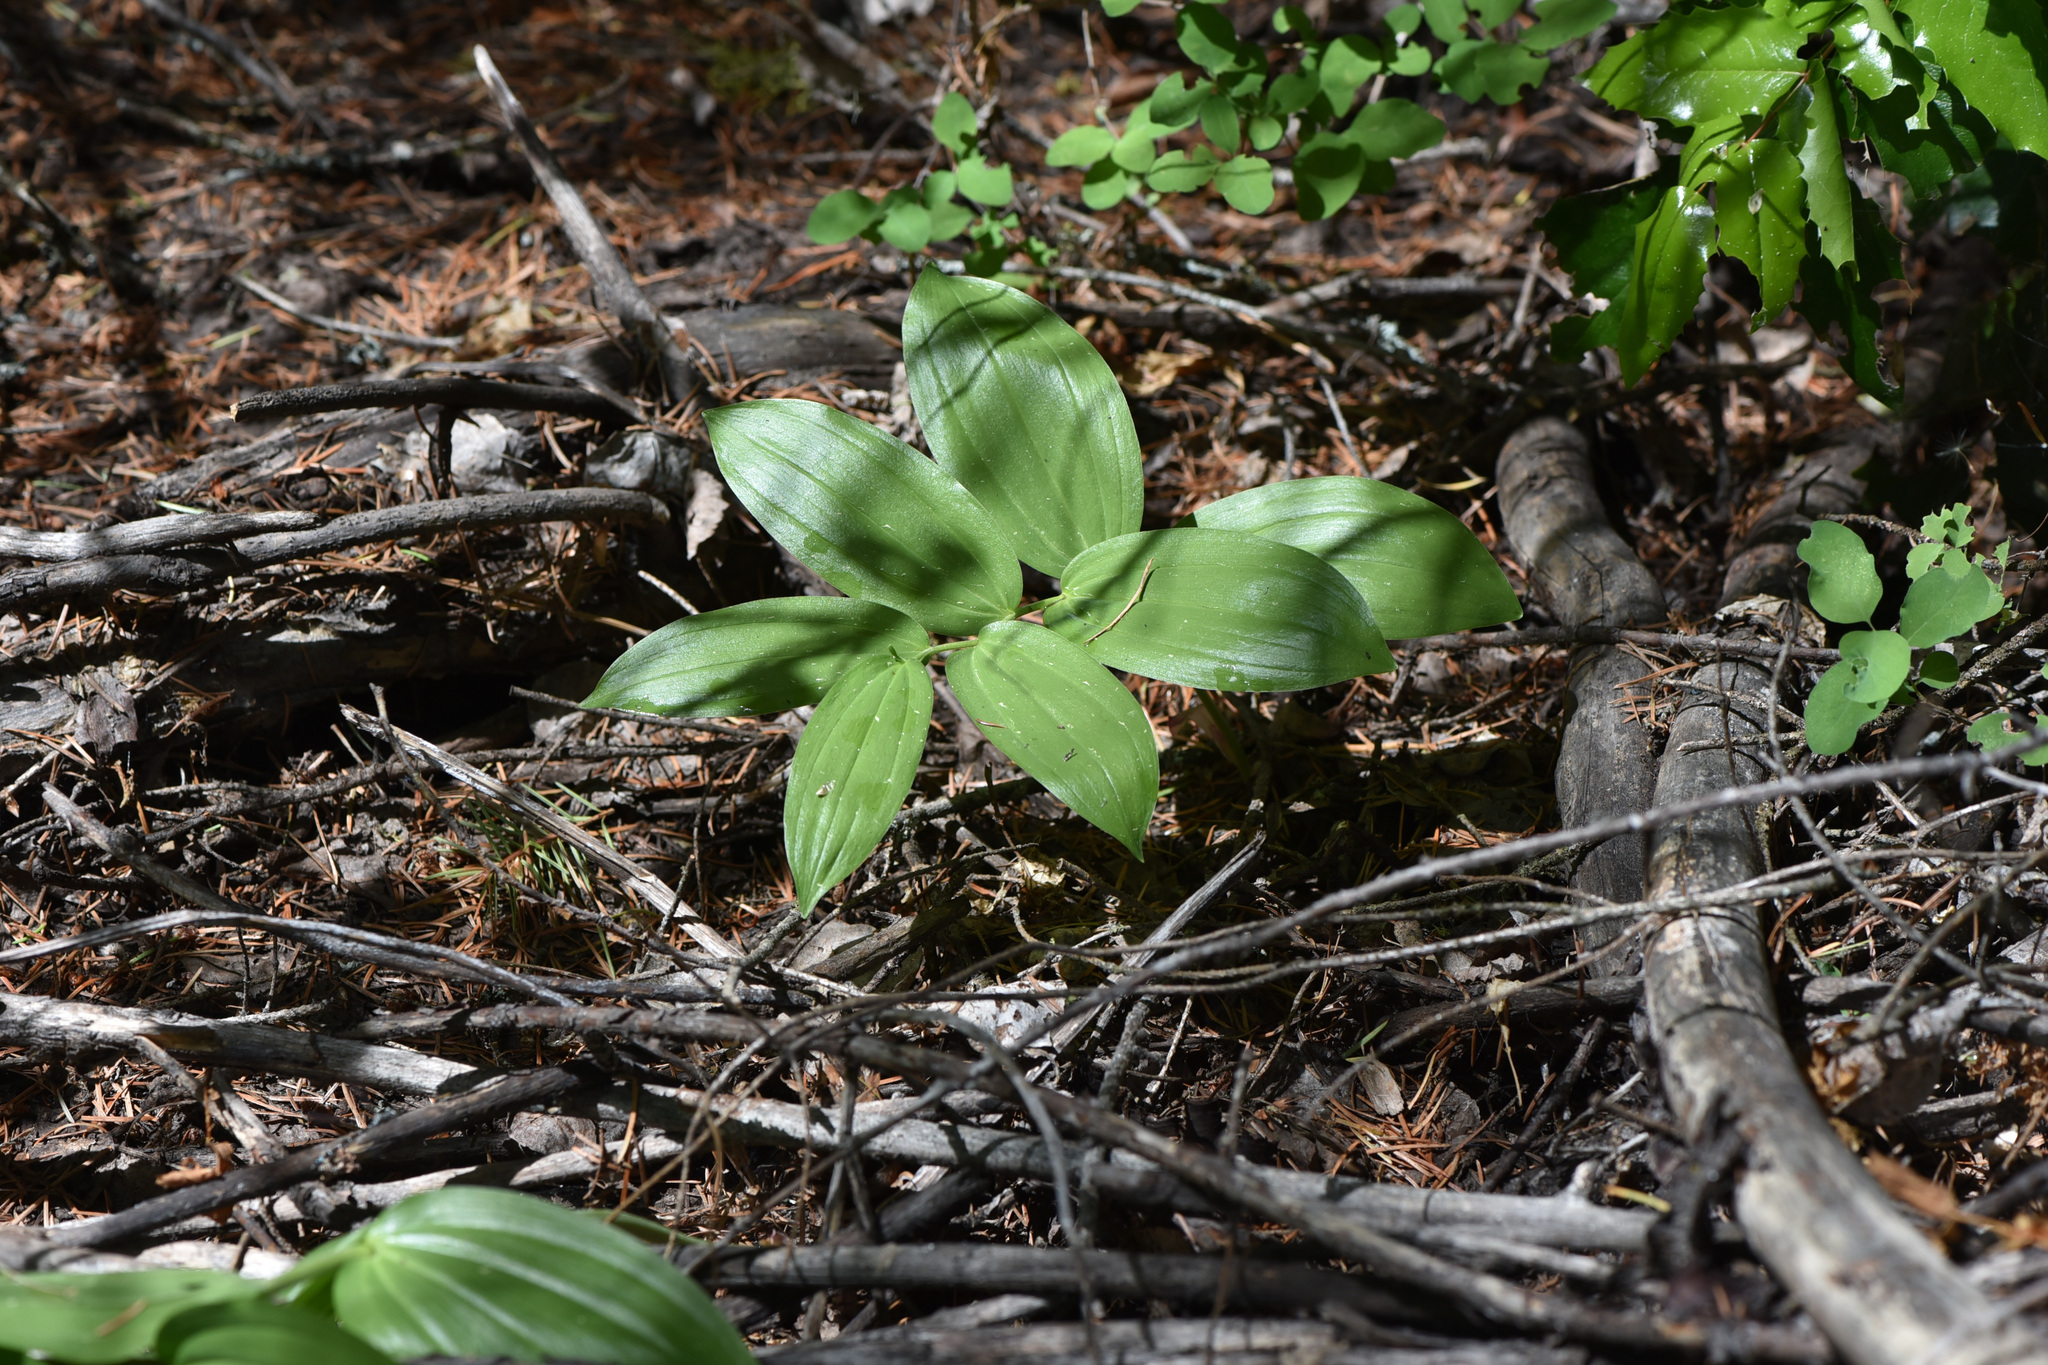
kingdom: Plantae
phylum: Tracheophyta
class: Liliopsida
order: Asparagales
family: Asparagaceae
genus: Maianthemum
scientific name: Maianthemum racemosum
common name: False spikenard
